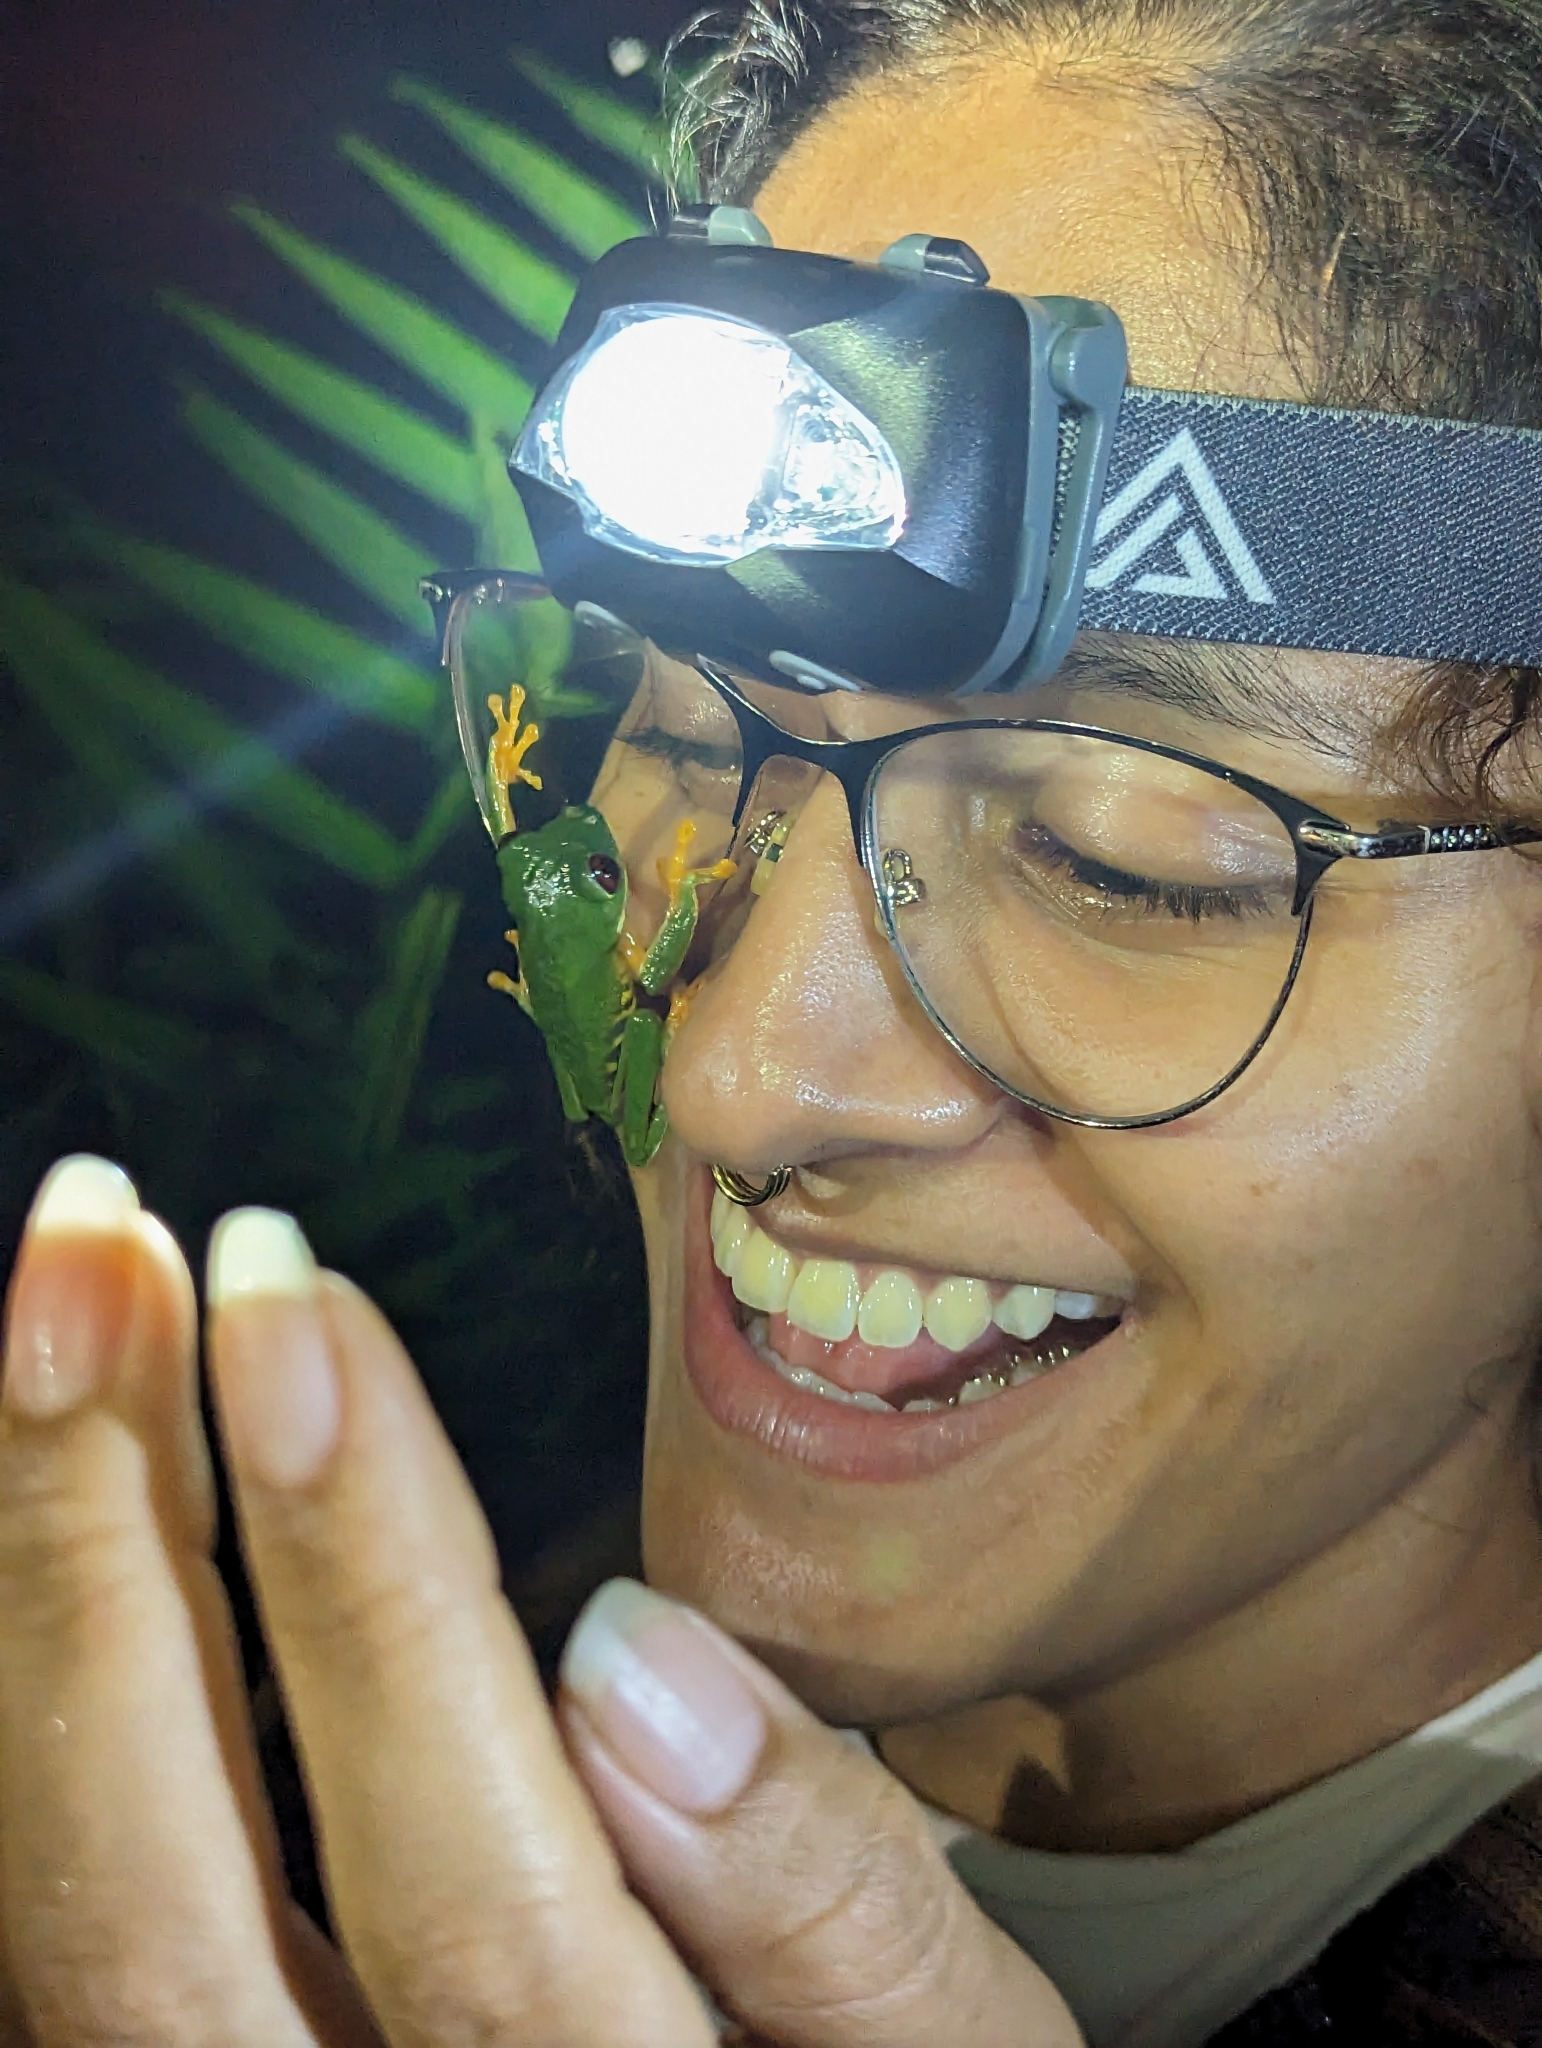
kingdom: Animalia
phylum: Chordata
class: Amphibia
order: Anura
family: Phyllomedusidae
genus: Agalychnis
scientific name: Agalychnis callidryas
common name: Red-eyed treefrog
